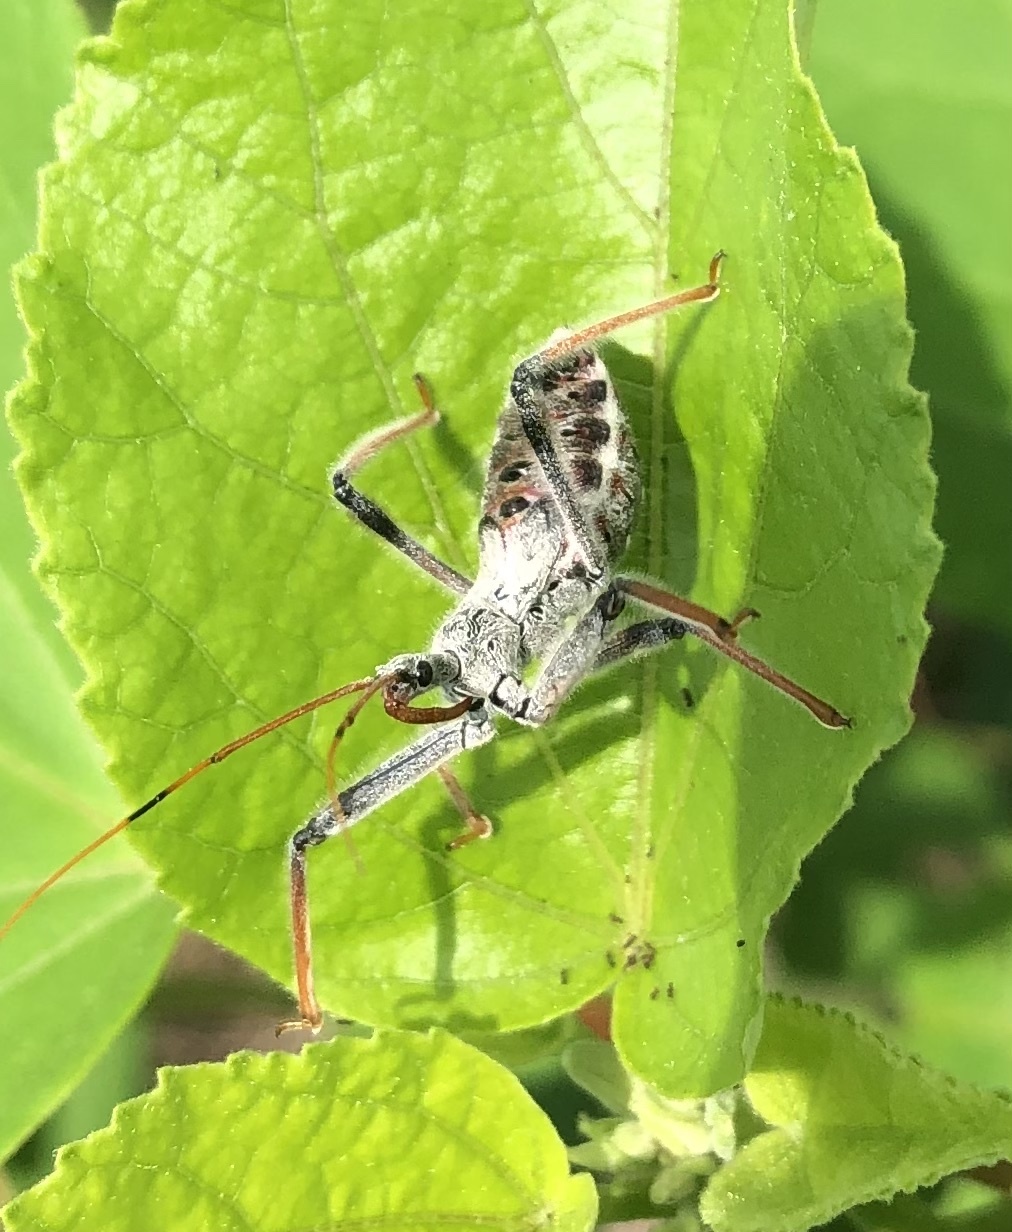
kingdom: Animalia
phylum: Arthropoda
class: Insecta
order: Hemiptera
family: Reduviidae
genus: Arilus
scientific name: Arilus cristatus
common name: North american wheel bug
